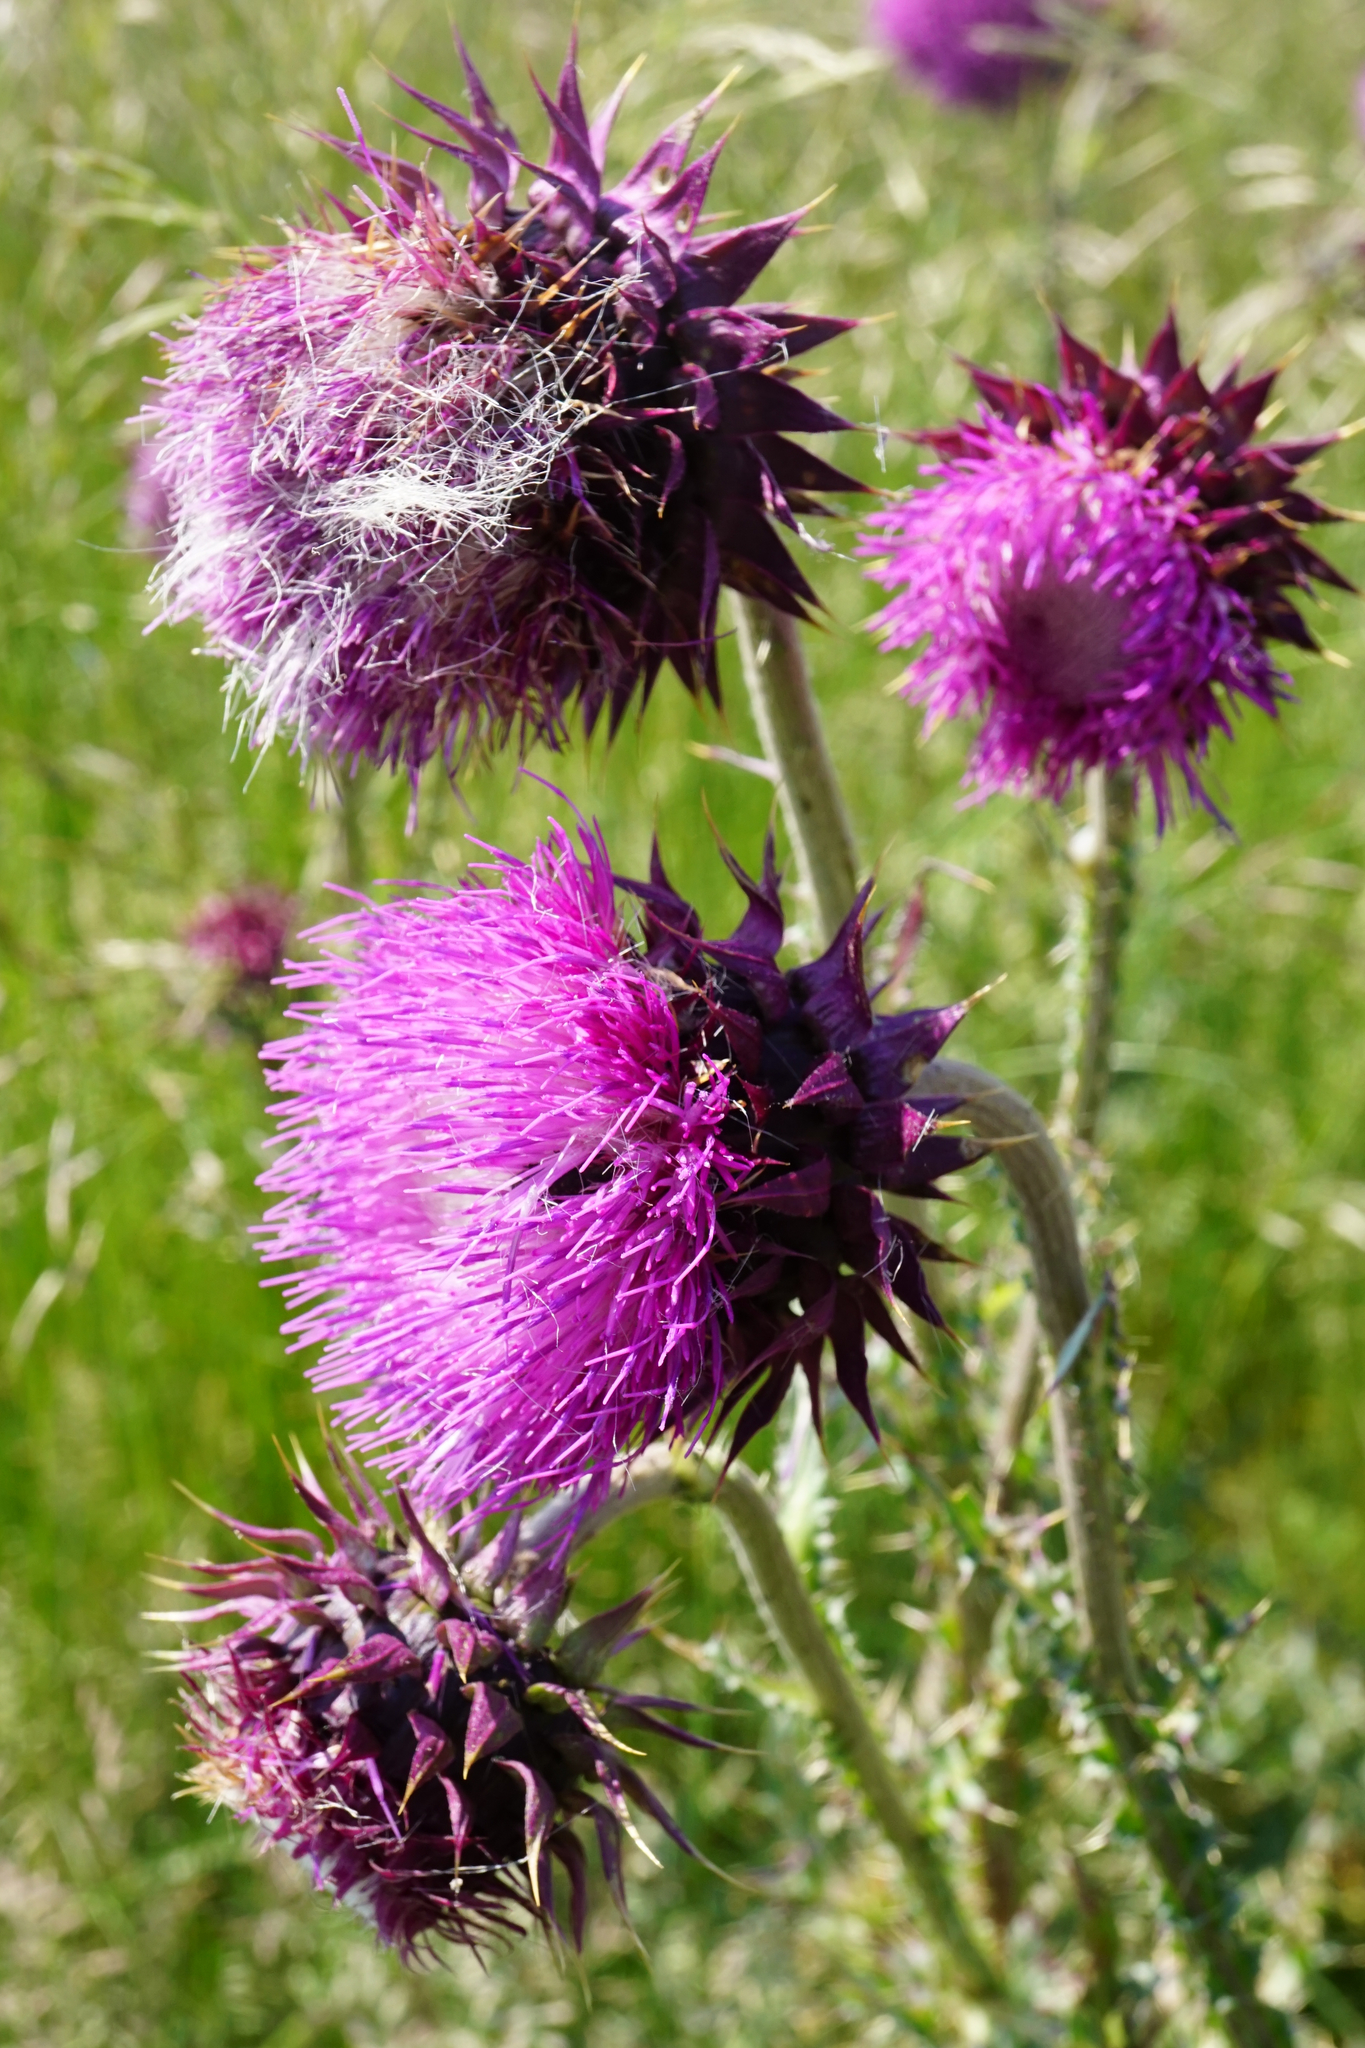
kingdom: Plantae
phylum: Tracheophyta
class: Magnoliopsida
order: Asterales
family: Asteraceae
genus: Carduus
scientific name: Carduus nutans
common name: Musk thistle
